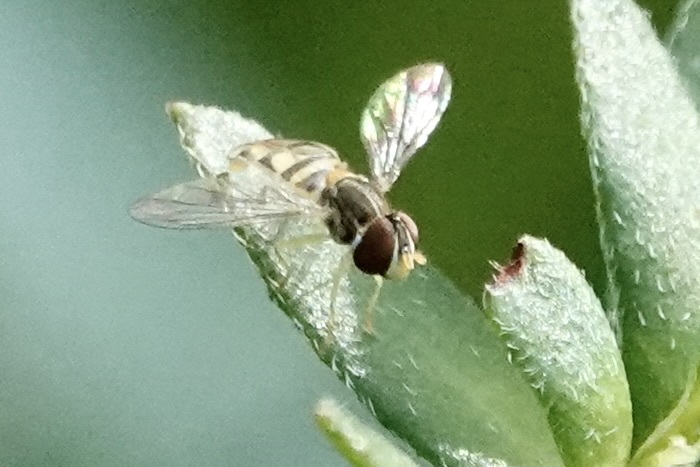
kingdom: Animalia
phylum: Arthropoda
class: Insecta
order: Diptera
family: Syrphidae
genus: Toxomerus
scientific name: Toxomerus marginatus
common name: Syrphid fly
